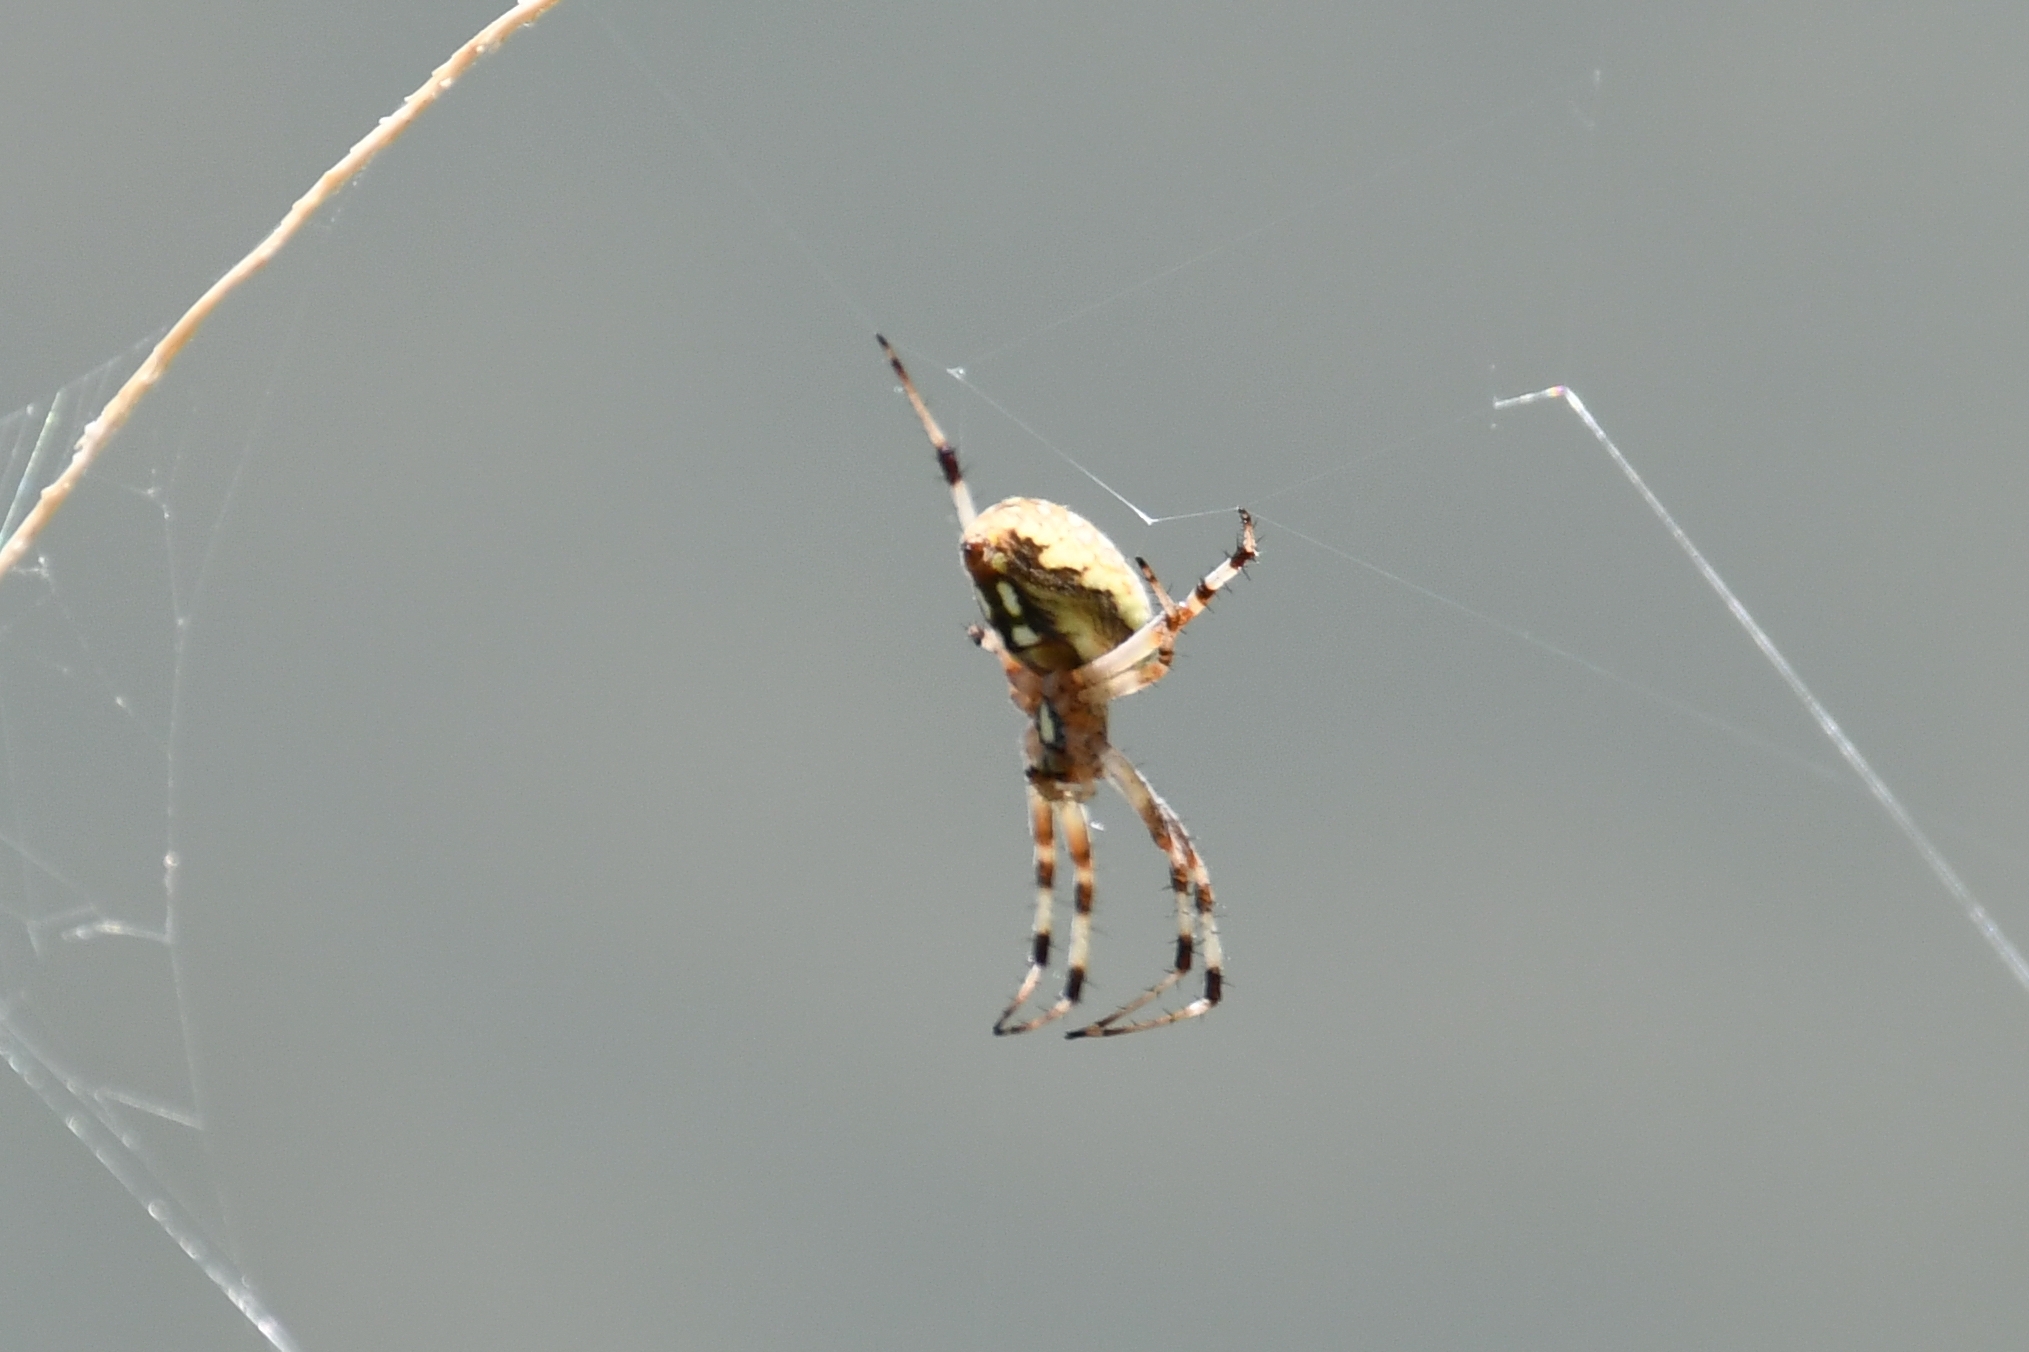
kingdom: Animalia
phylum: Arthropoda
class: Arachnida
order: Araneae
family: Araneidae
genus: Neoscona
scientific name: Neoscona oaxacensis
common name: Orb weavers
